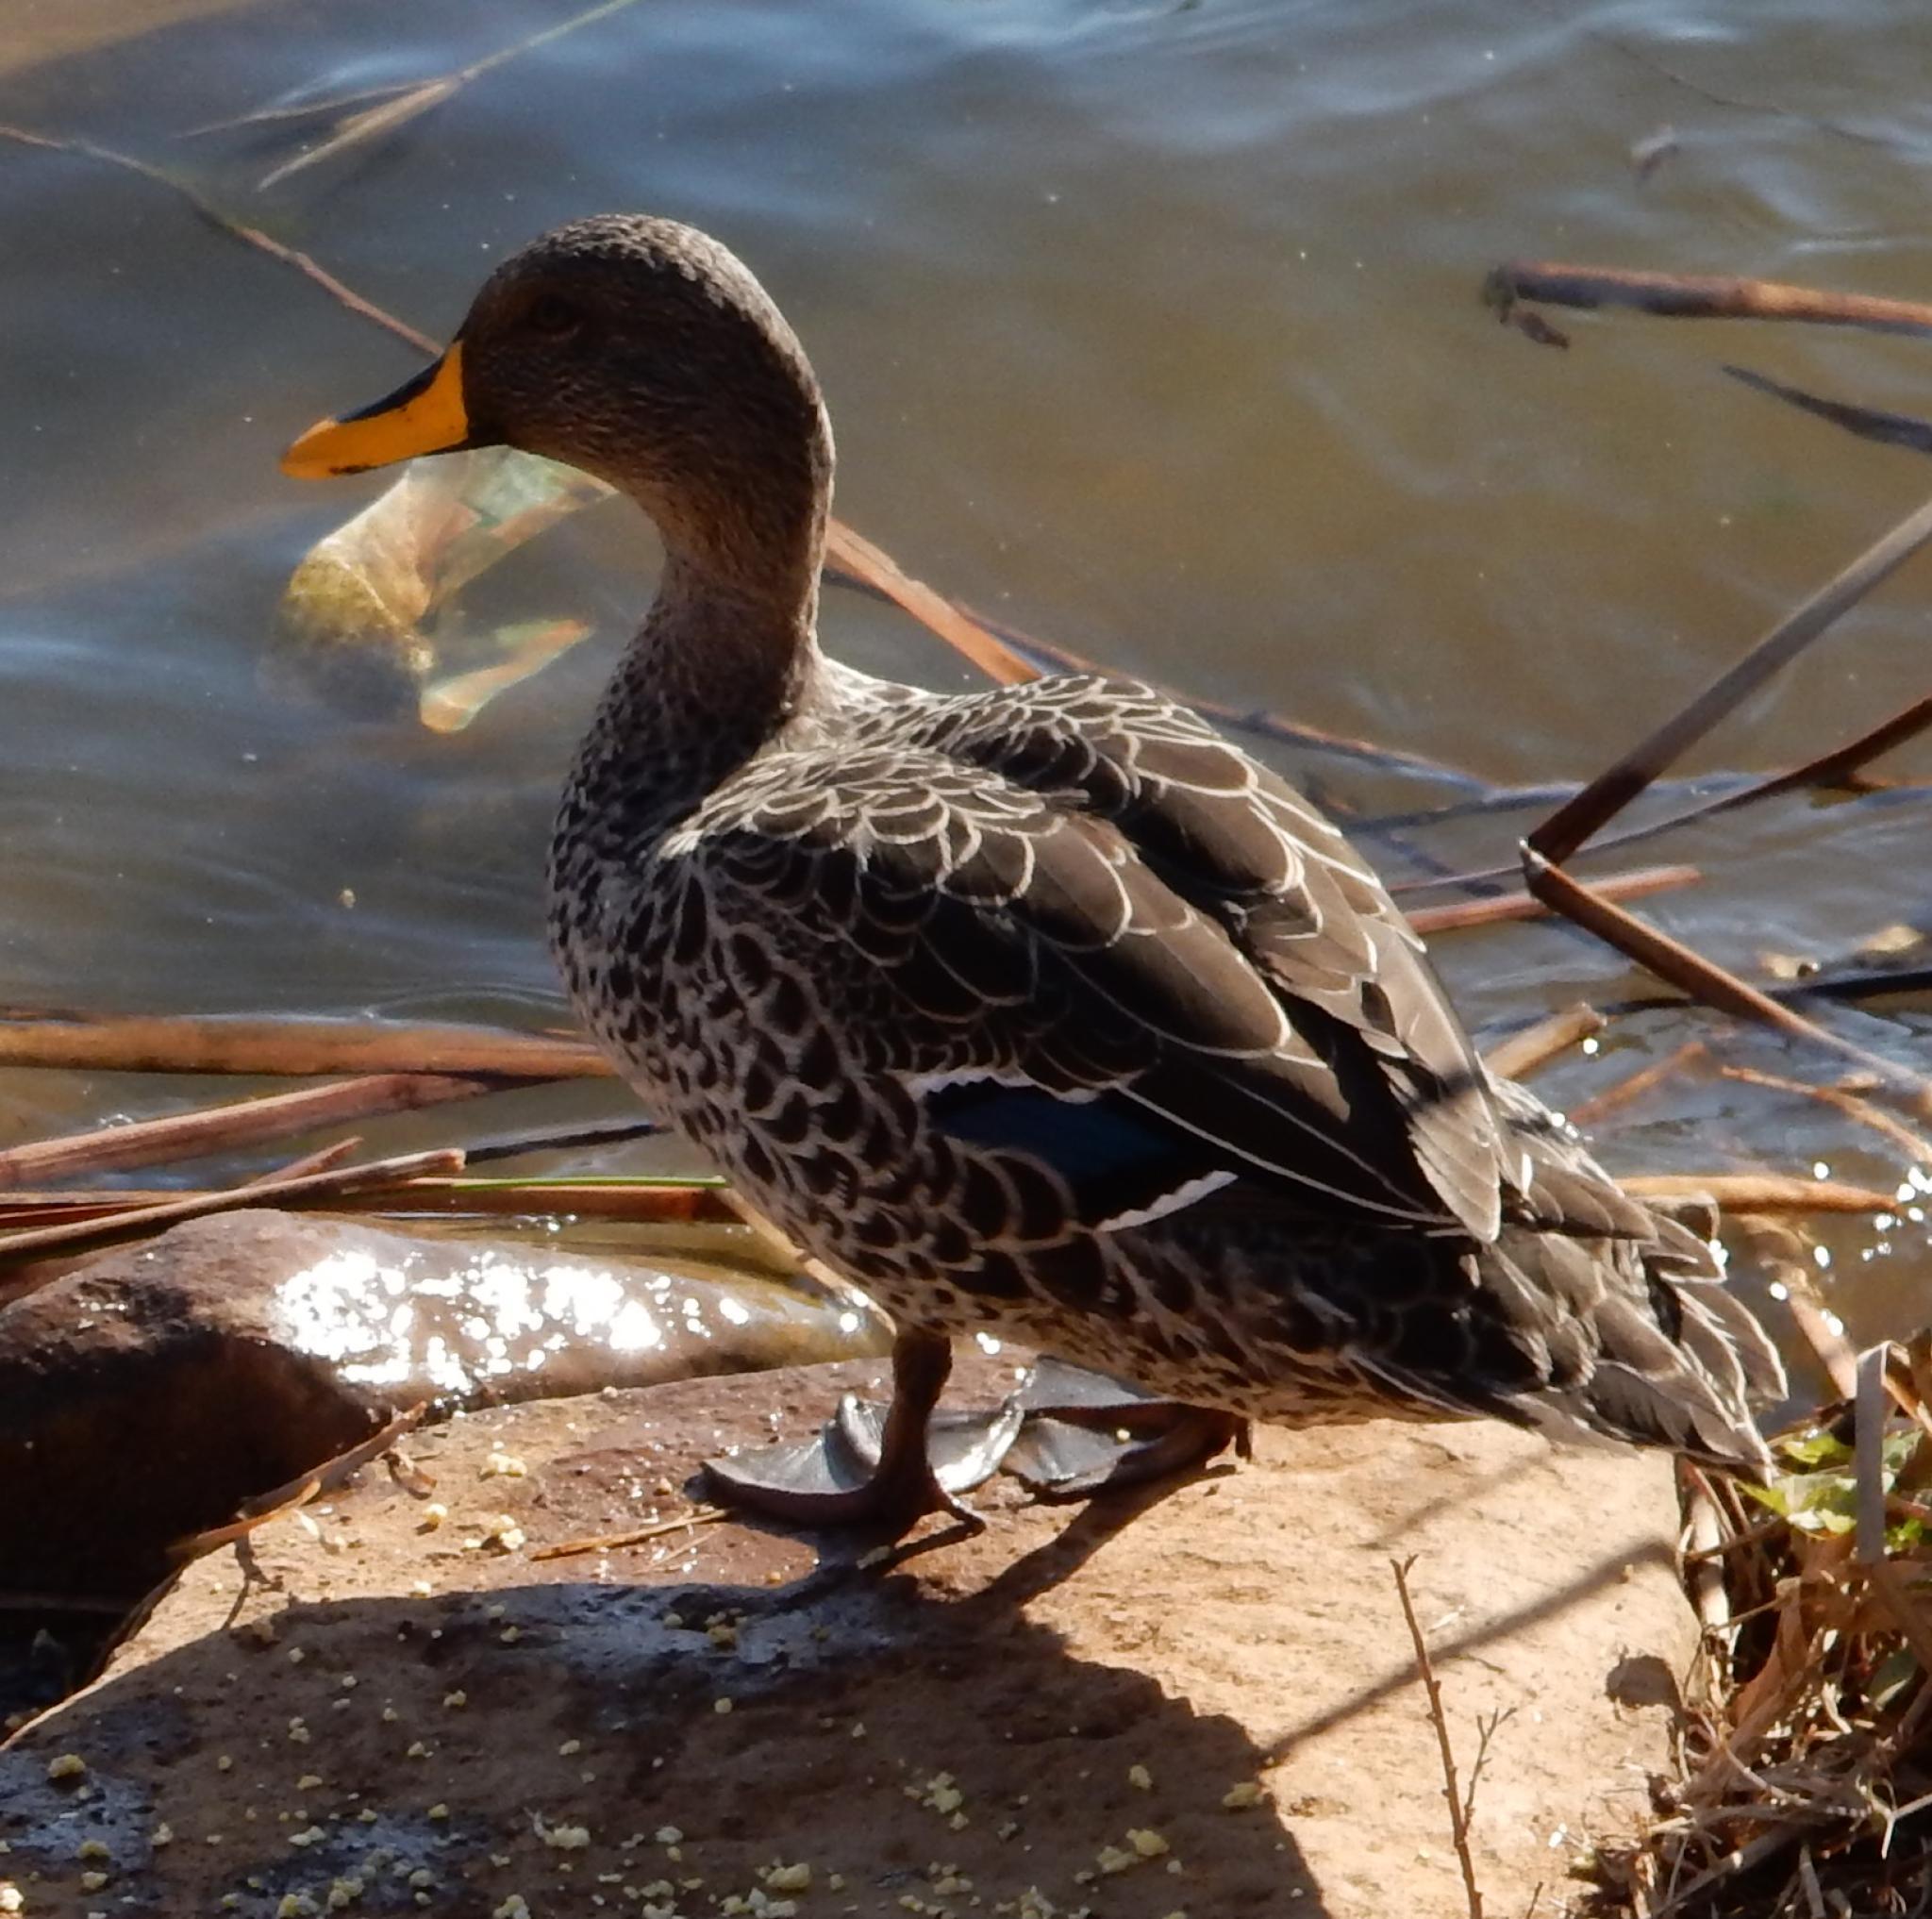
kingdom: Animalia
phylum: Chordata
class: Aves
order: Anseriformes
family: Anatidae
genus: Anas
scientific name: Anas undulata
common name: Yellow-billed duck
